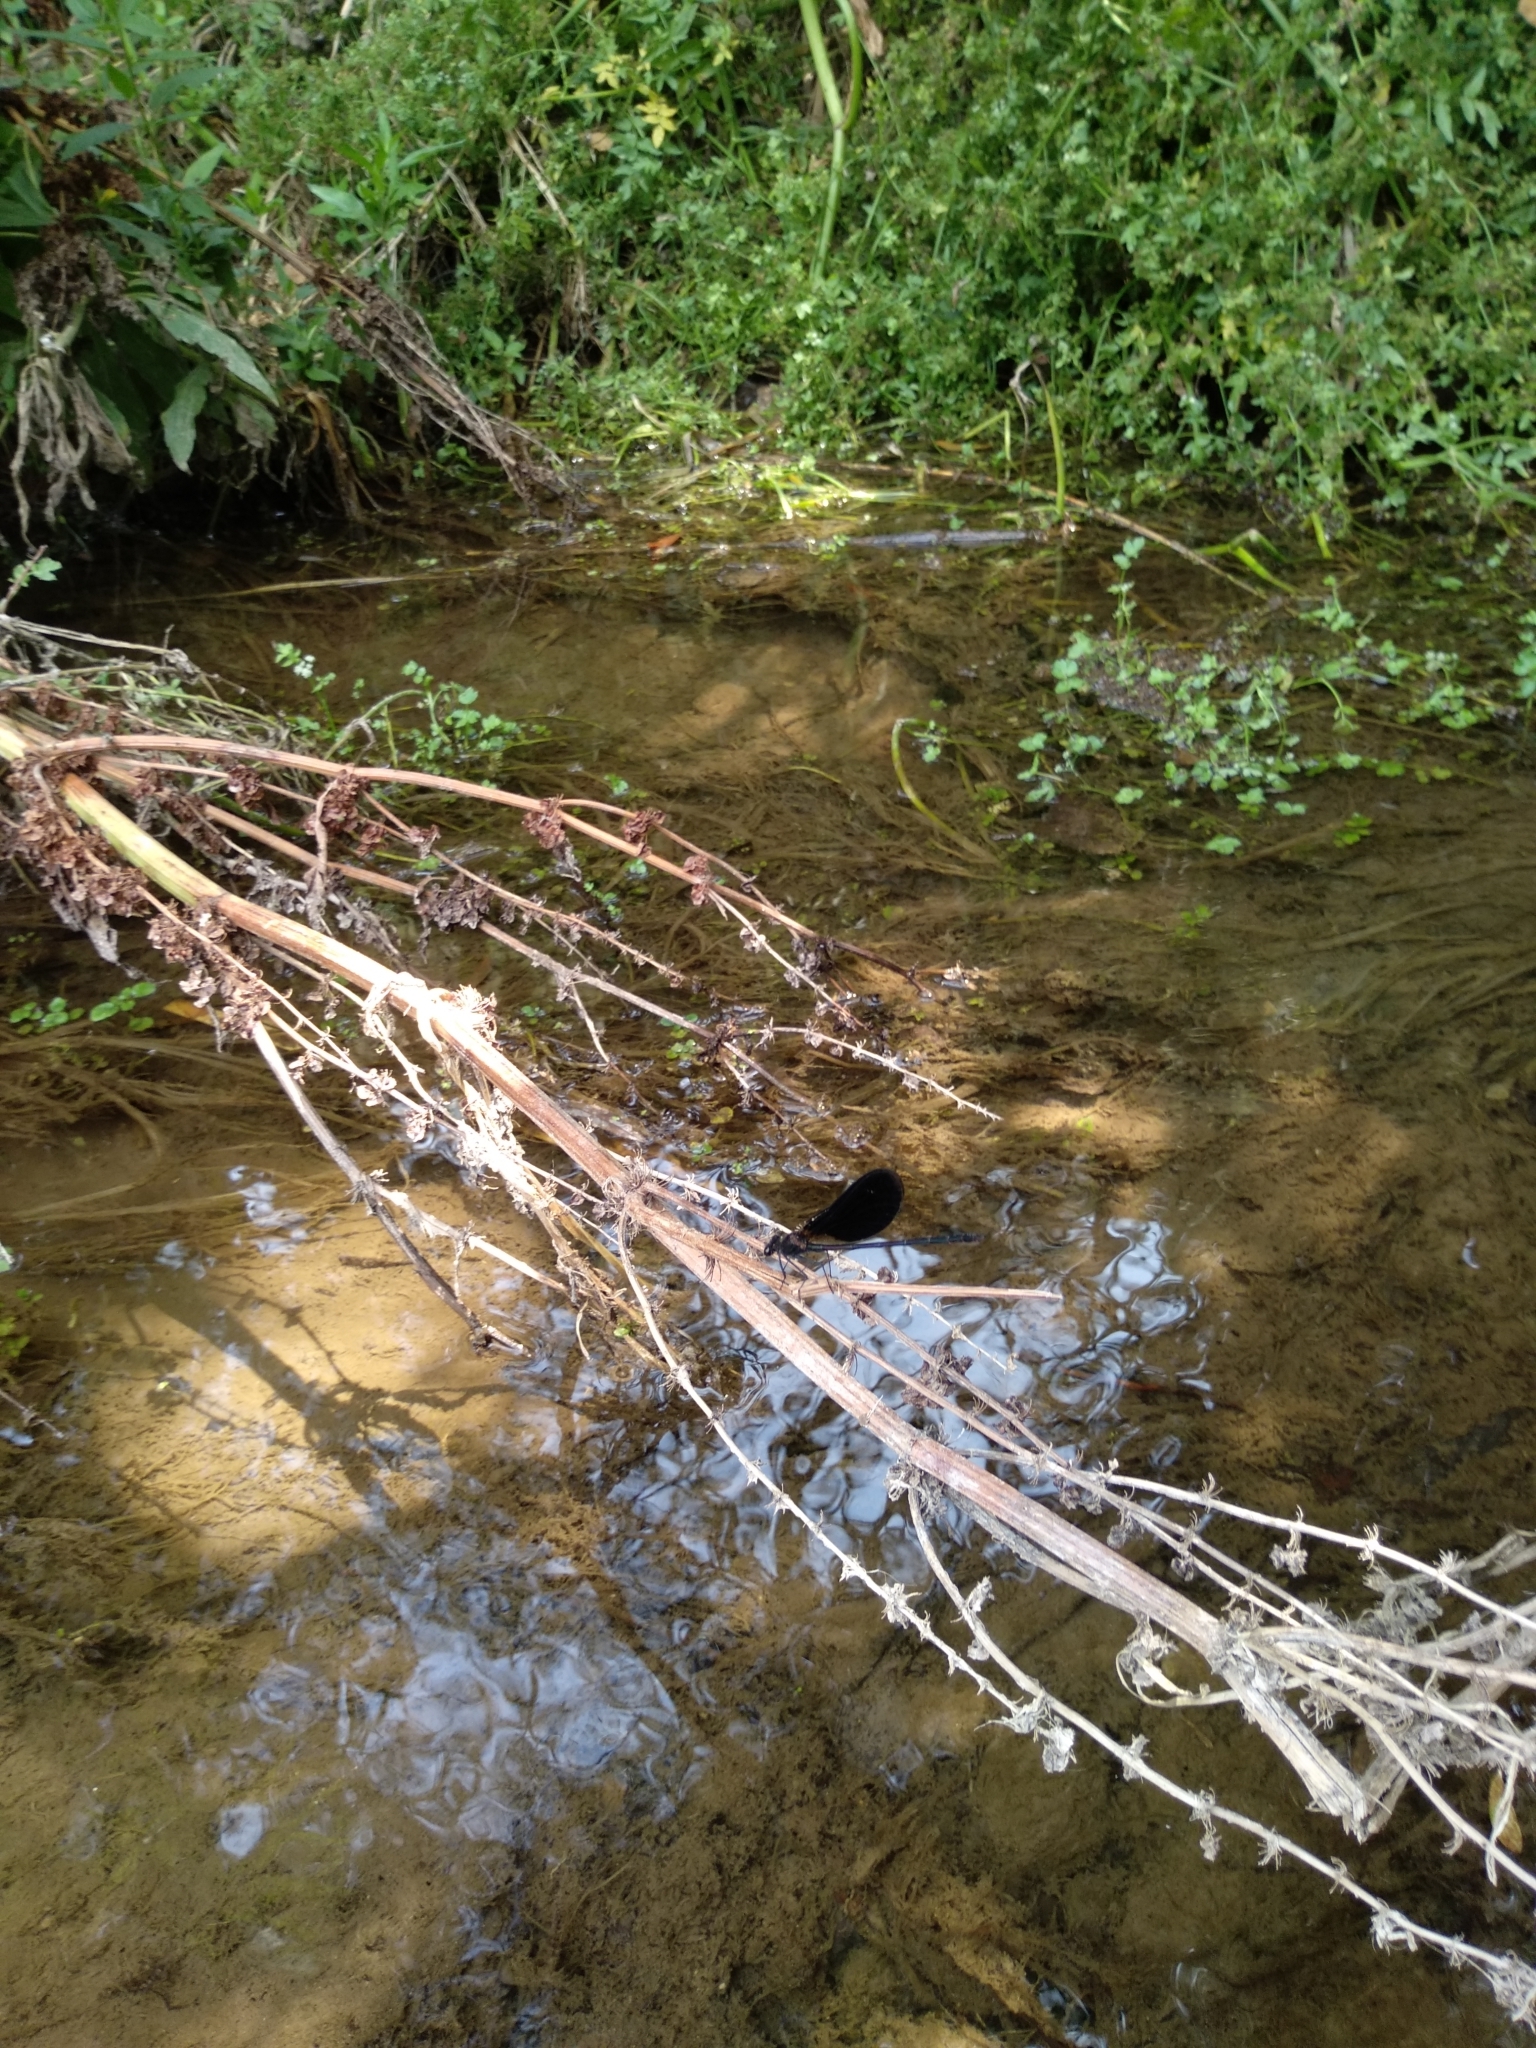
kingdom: Animalia
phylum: Arthropoda
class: Insecta
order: Odonata
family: Calopterygidae
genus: Calopteryx
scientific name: Calopteryx haemorrhoidalis
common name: Copper demoiselle
